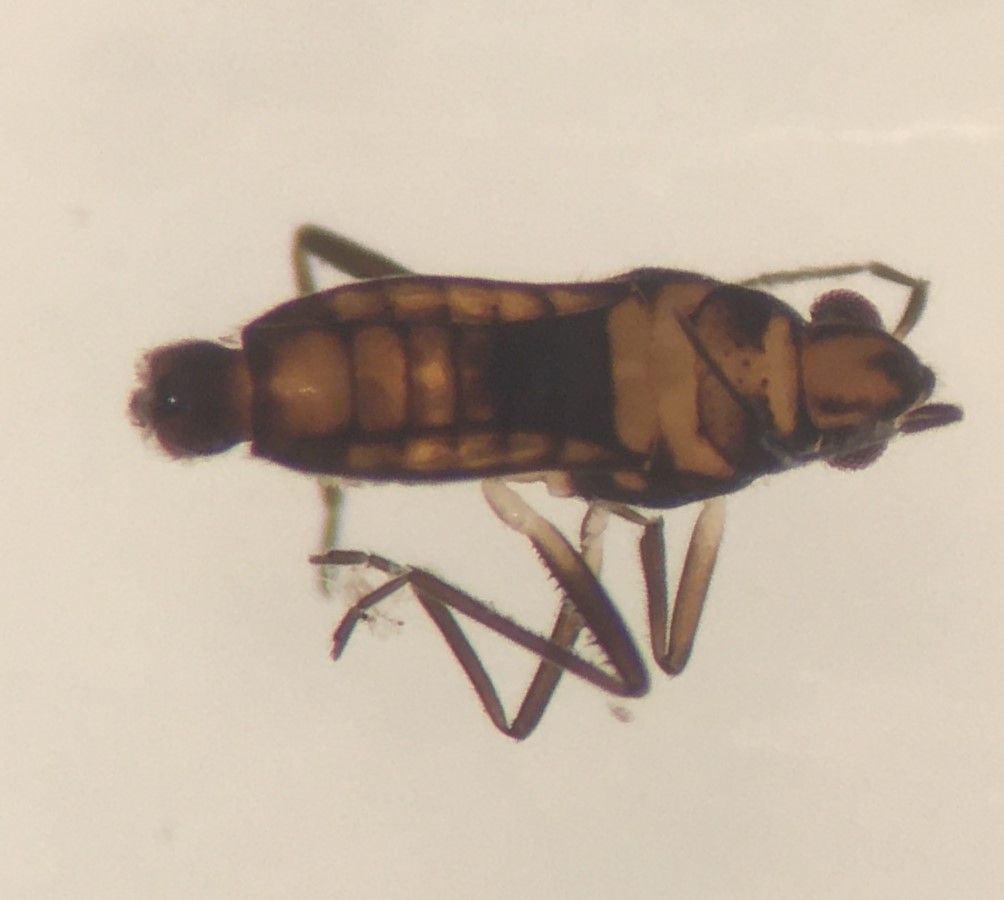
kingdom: Animalia
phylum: Arthropoda
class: Insecta
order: Hemiptera
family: Veliidae
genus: Microvelia
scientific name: Microvelia albonotata
